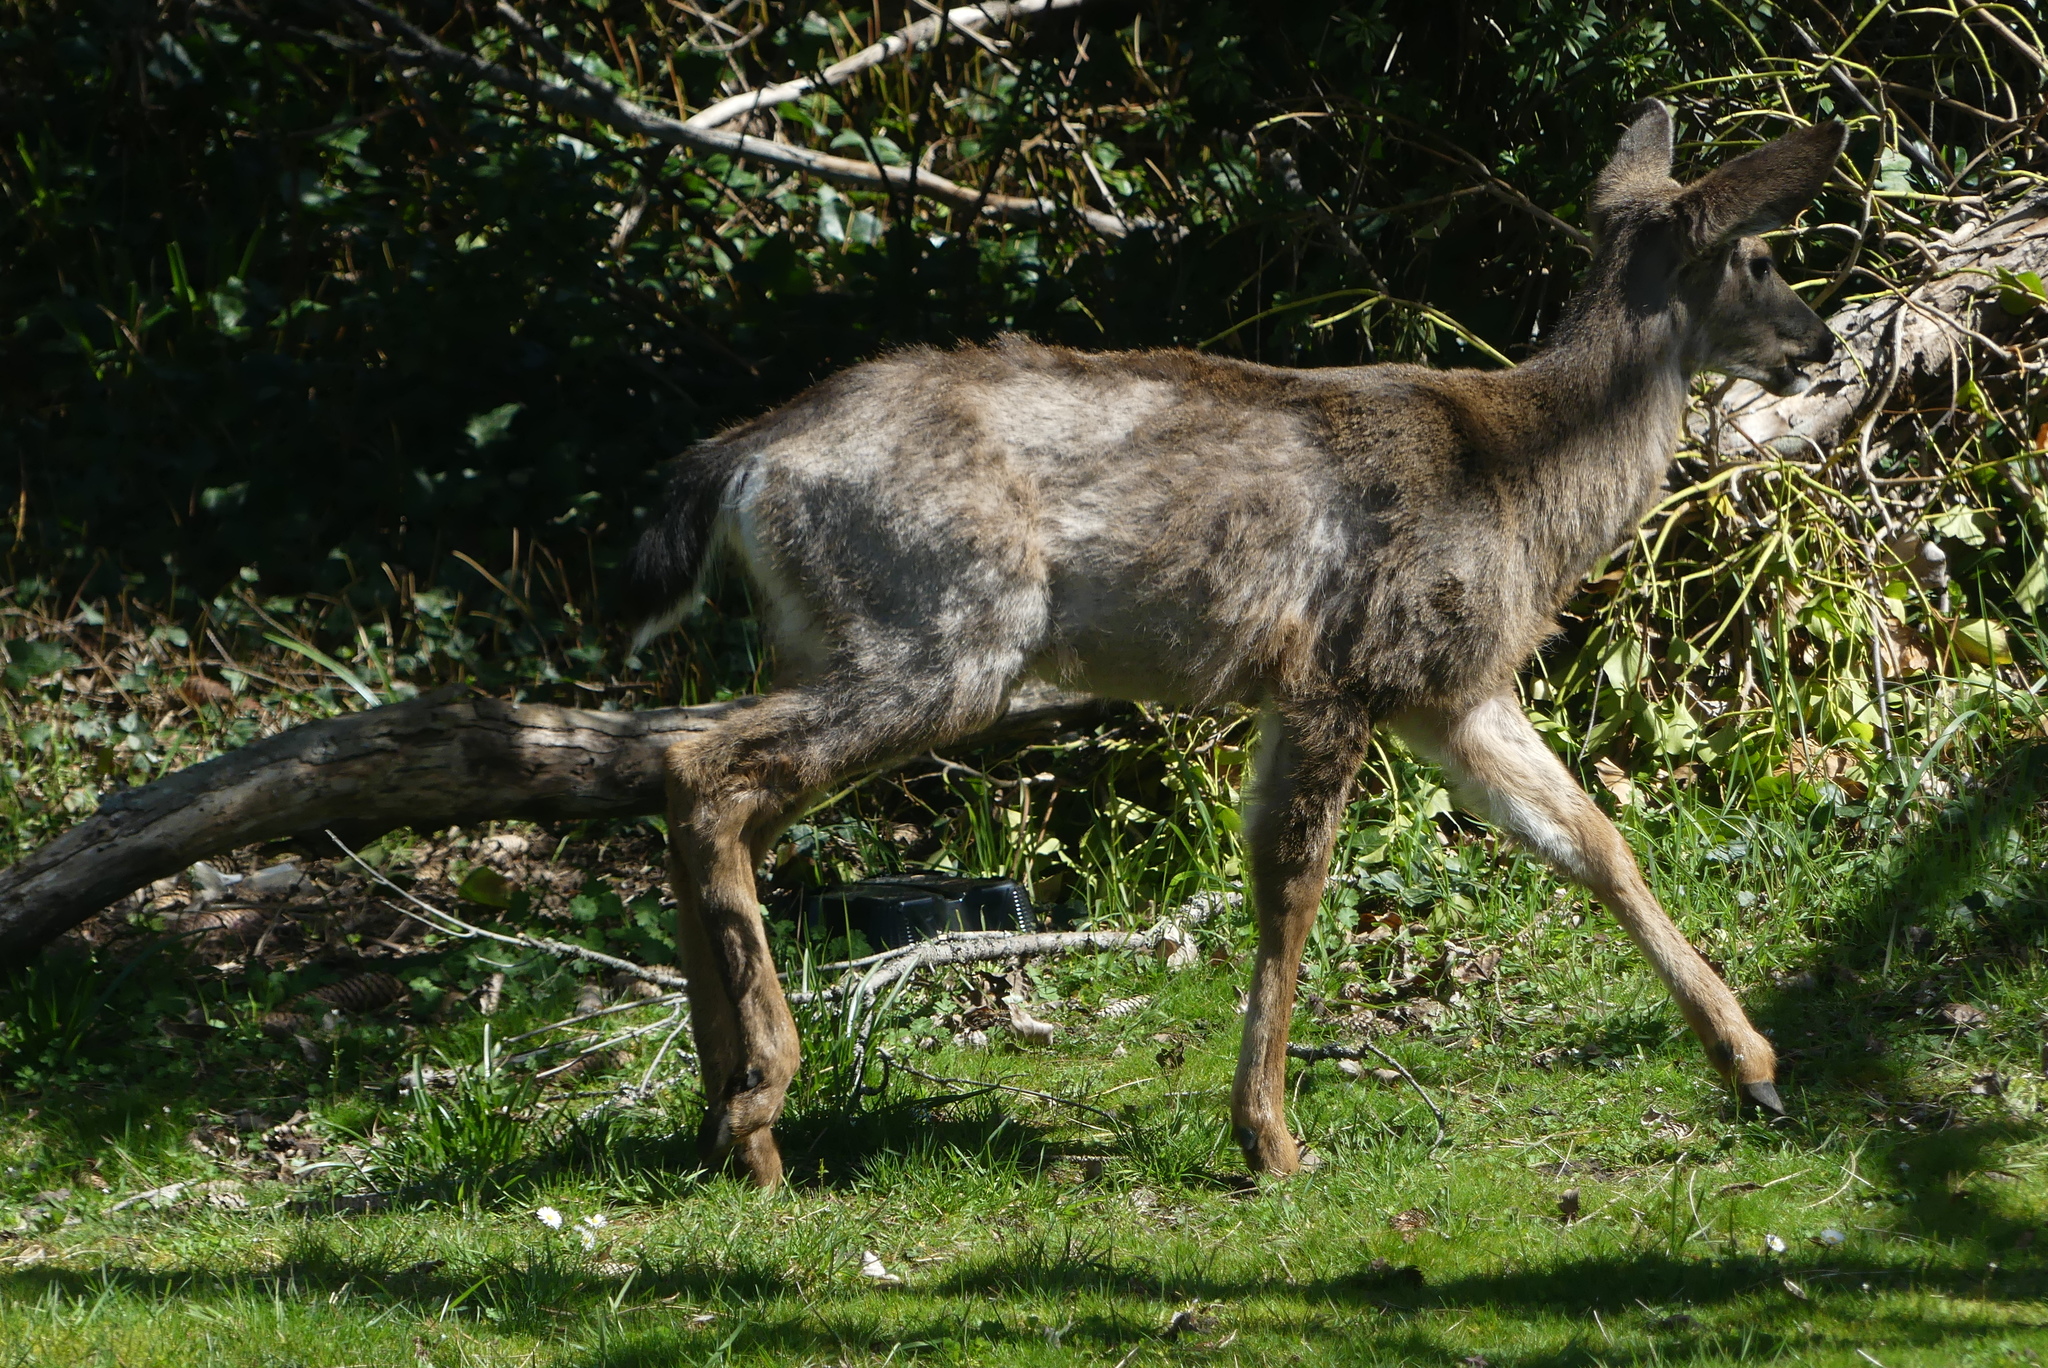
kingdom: Animalia
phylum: Chordata
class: Mammalia
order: Artiodactyla
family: Cervidae
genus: Odocoileus
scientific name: Odocoileus hemionus
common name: Mule deer
